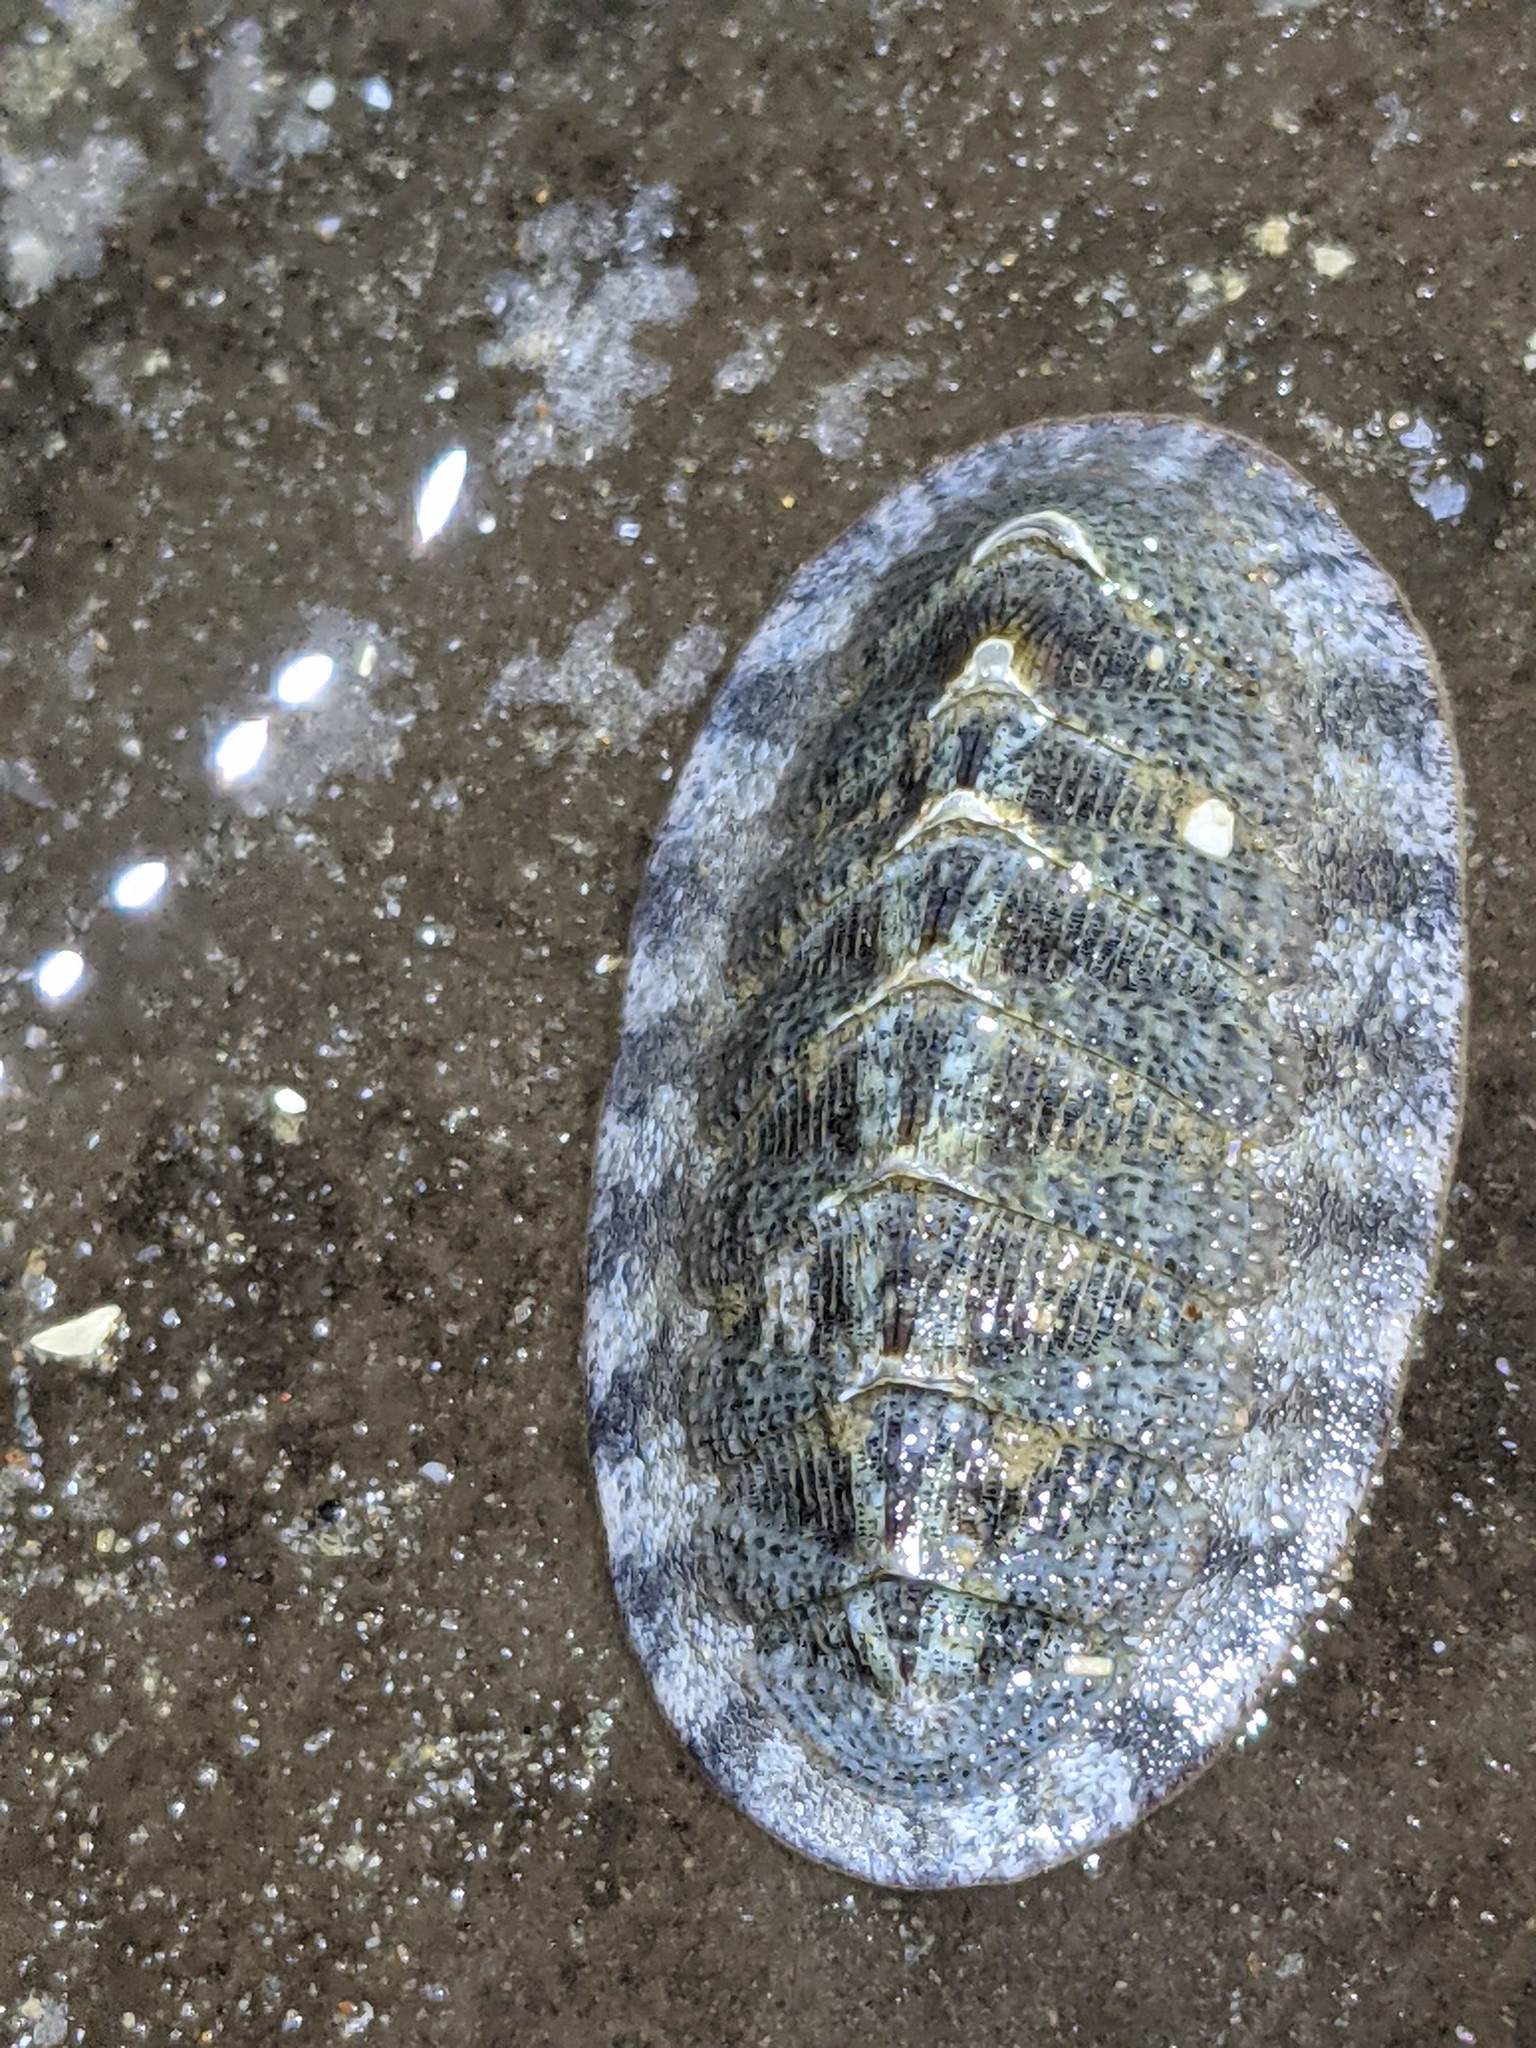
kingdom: Animalia
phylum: Mollusca
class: Polyplacophora
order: Chitonida
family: Ischnochitonidae
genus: Lepidozona
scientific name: Lepidozona cooperi
